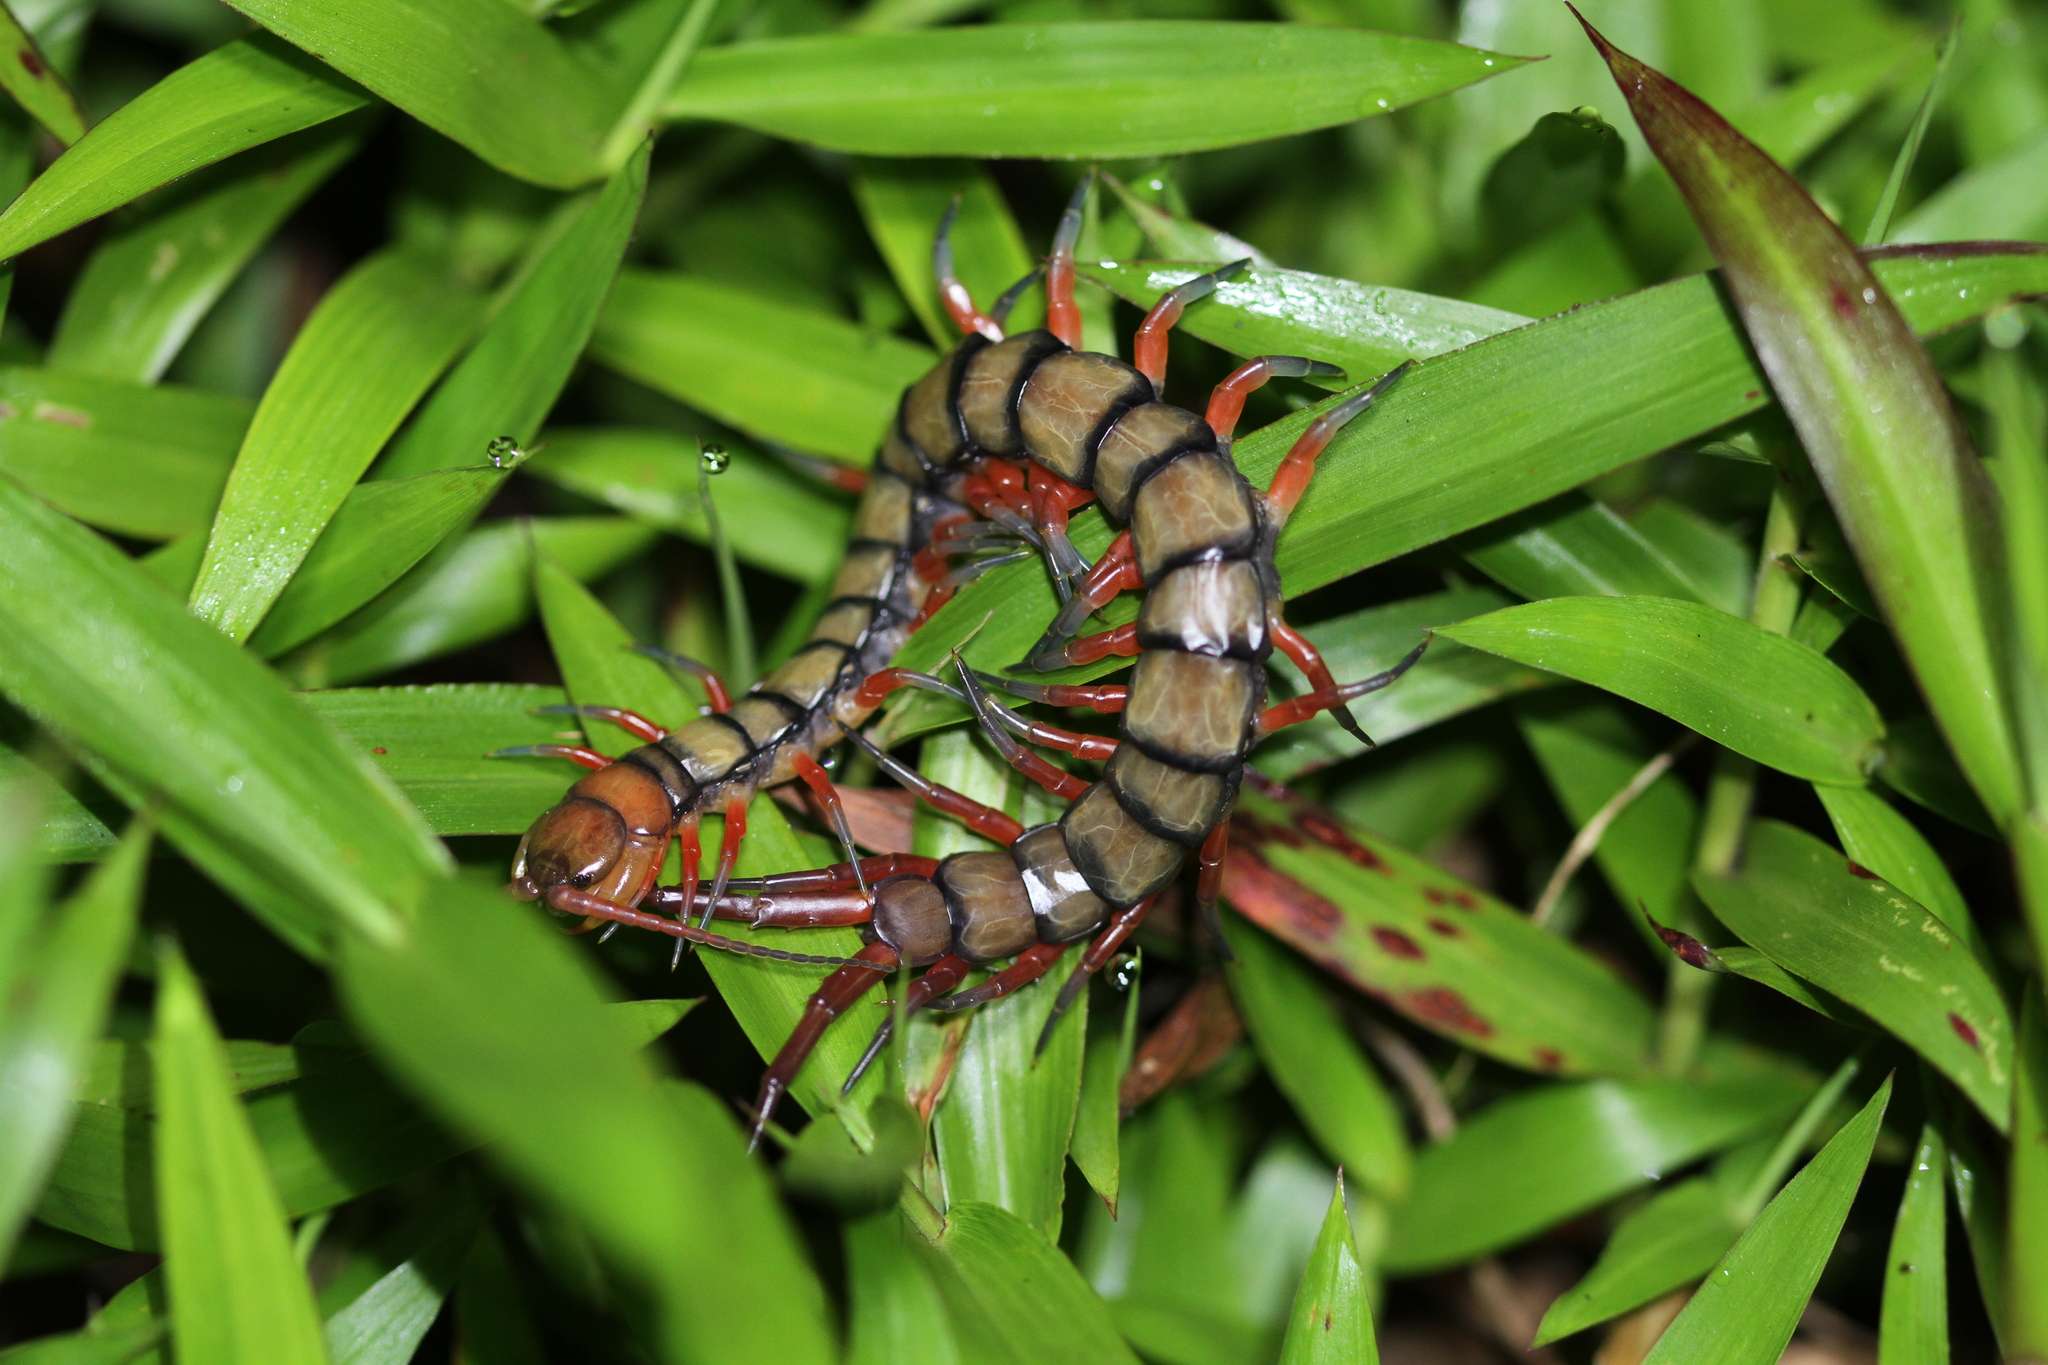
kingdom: Animalia
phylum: Arthropoda
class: Chilopoda
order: Scolopendromorpha
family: Scolopendridae
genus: Scolopendra
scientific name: Scolopendra subspinipes
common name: Centipede
